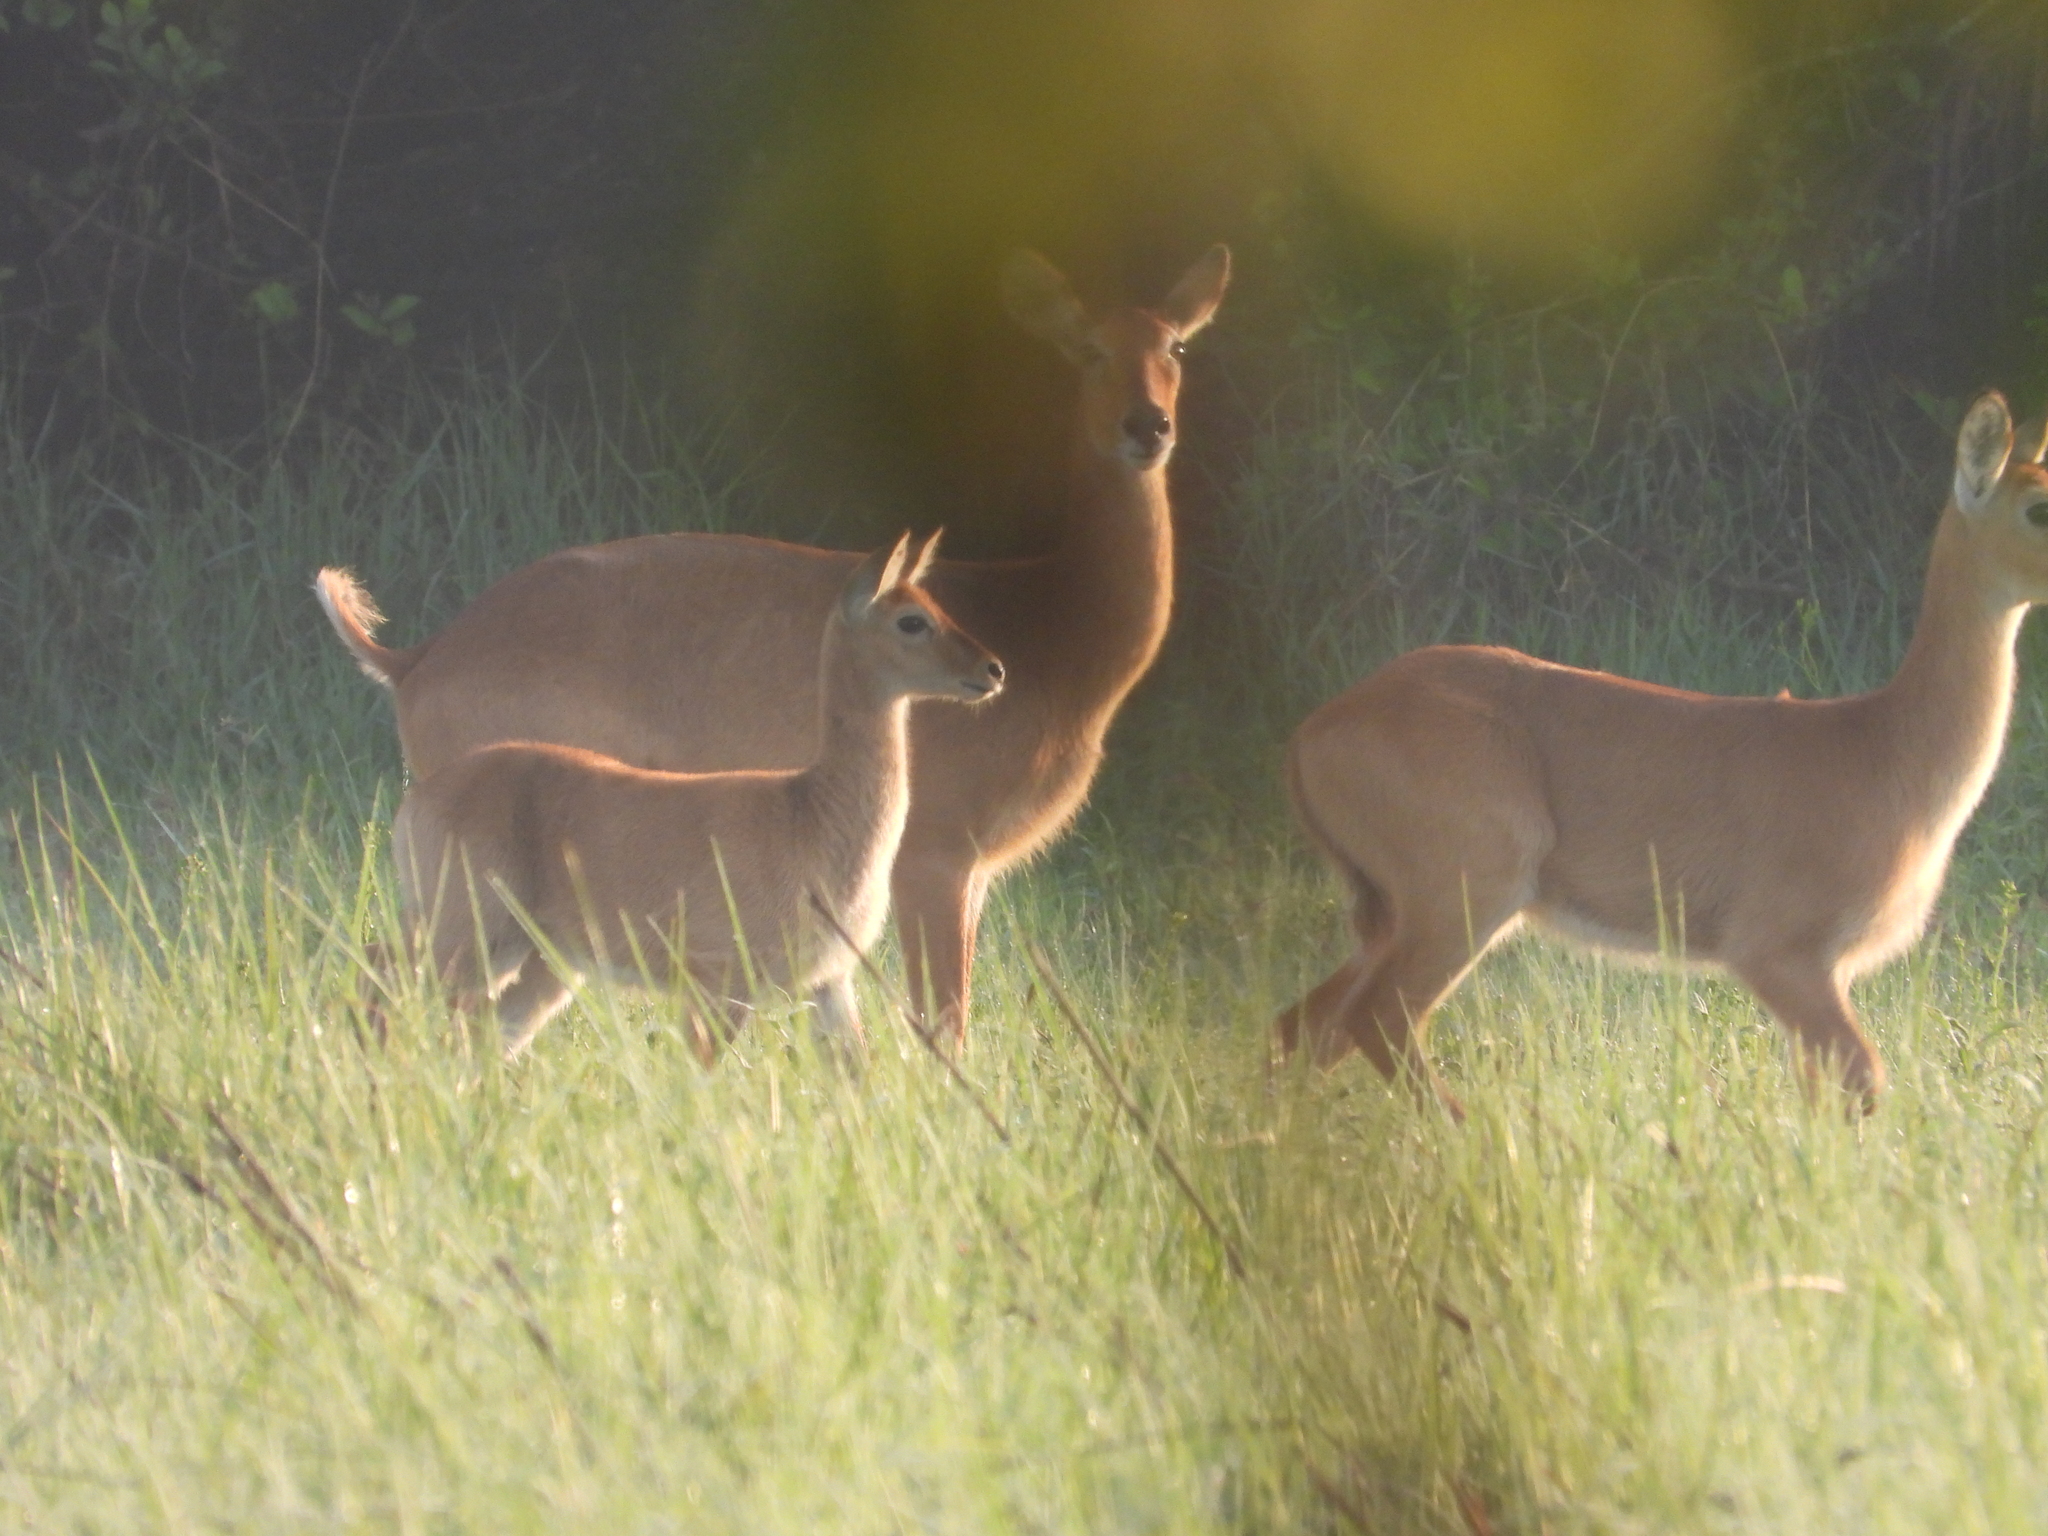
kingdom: Animalia
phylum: Chordata
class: Mammalia
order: Artiodactyla
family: Bovidae
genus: Kobus
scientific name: Kobus vardonii
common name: Puku
